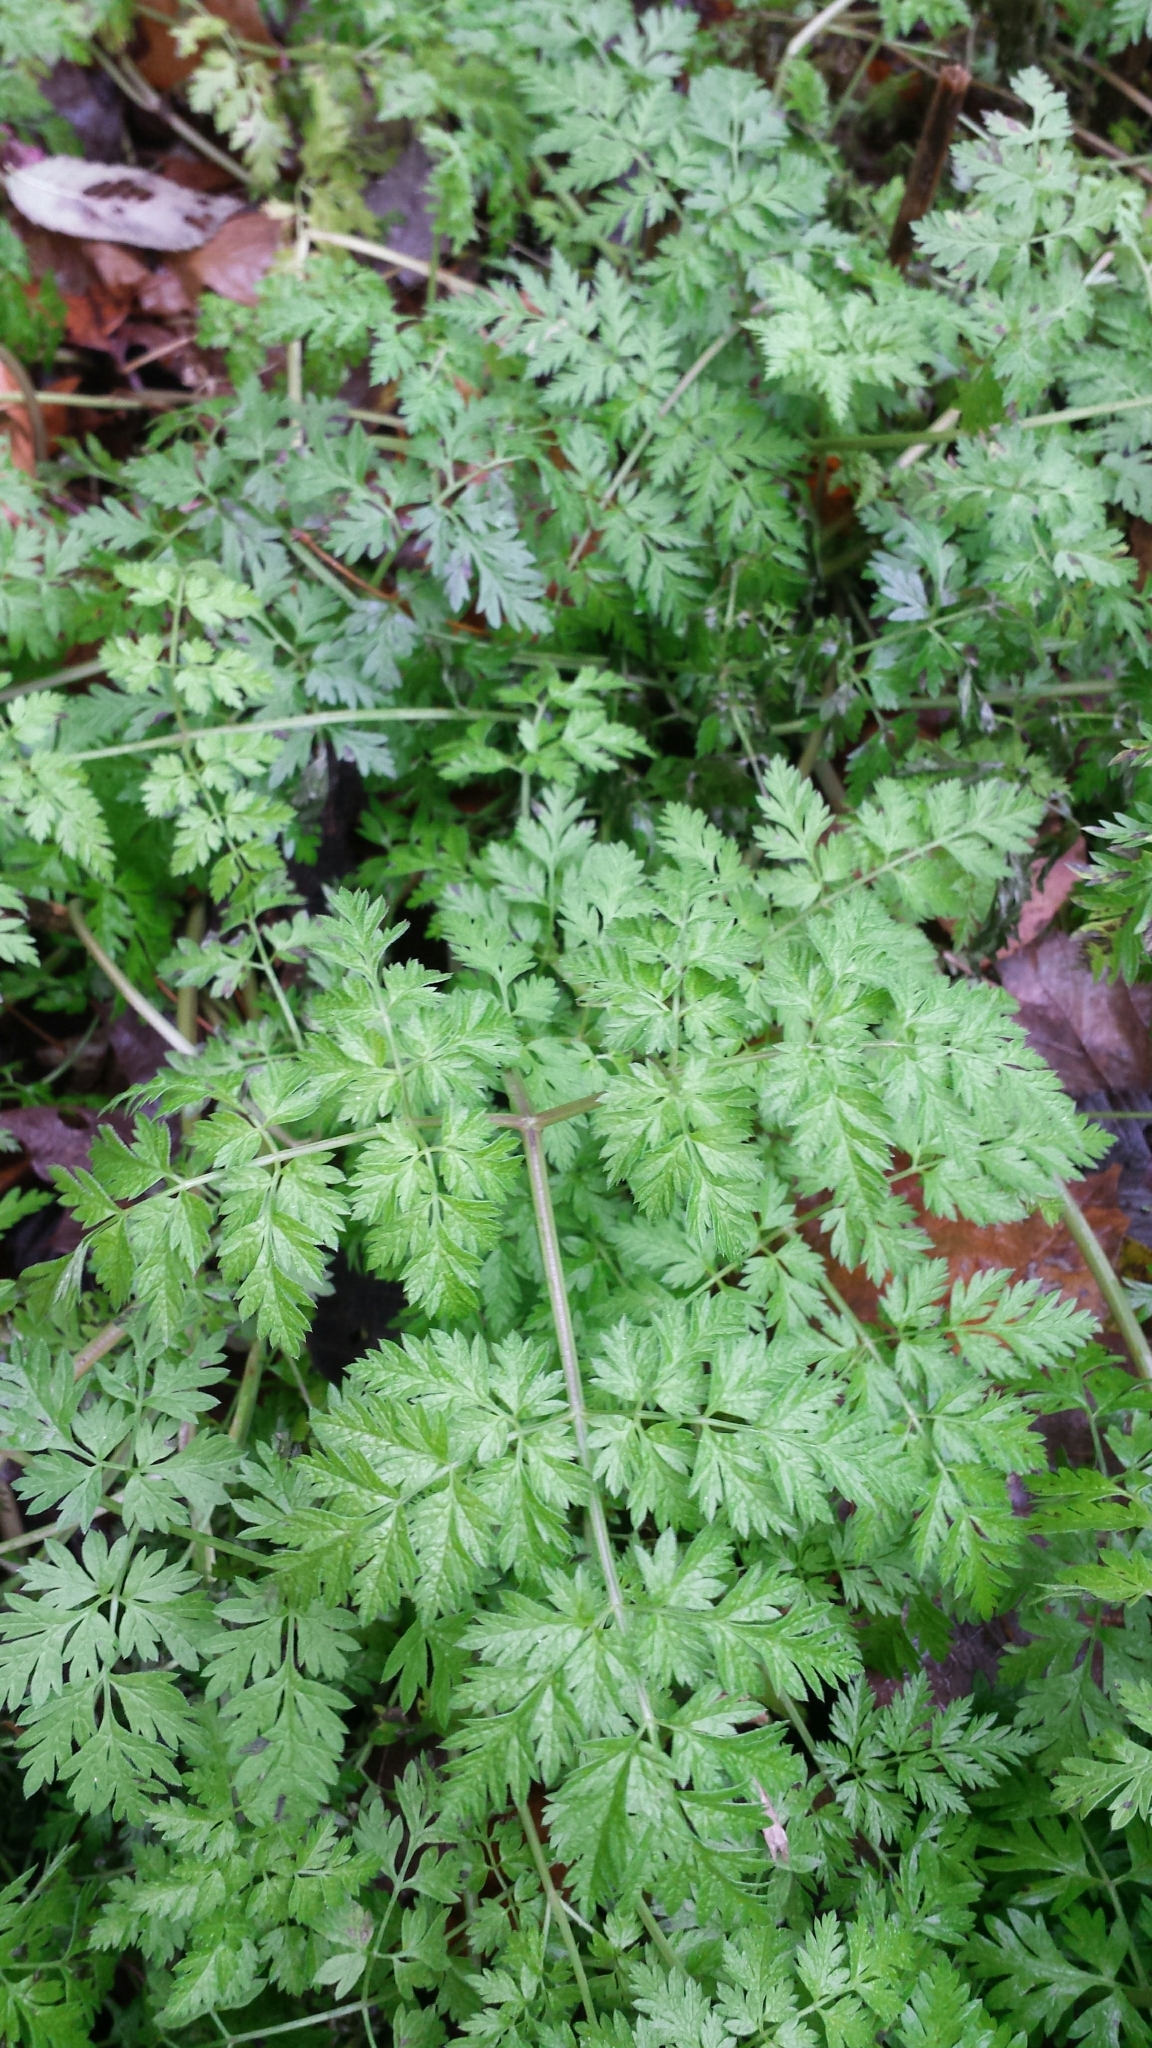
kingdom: Plantae
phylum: Tracheophyta
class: Magnoliopsida
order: Apiales
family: Apiaceae
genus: Anthriscus
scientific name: Anthriscus sylvestris
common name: Cow parsley
